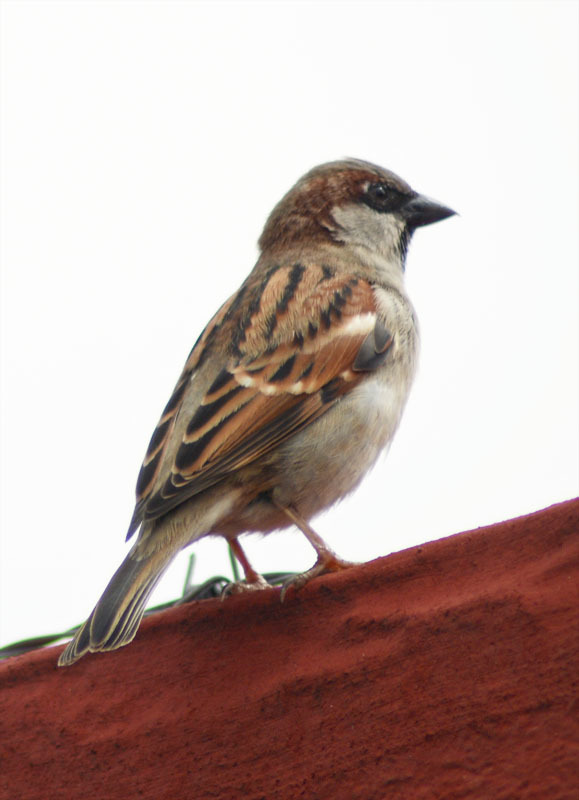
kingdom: Animalia
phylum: Chordata
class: Aves
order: Passeriformes
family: Passeridae
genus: Passer
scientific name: Passer domesticus
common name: House sparrow
